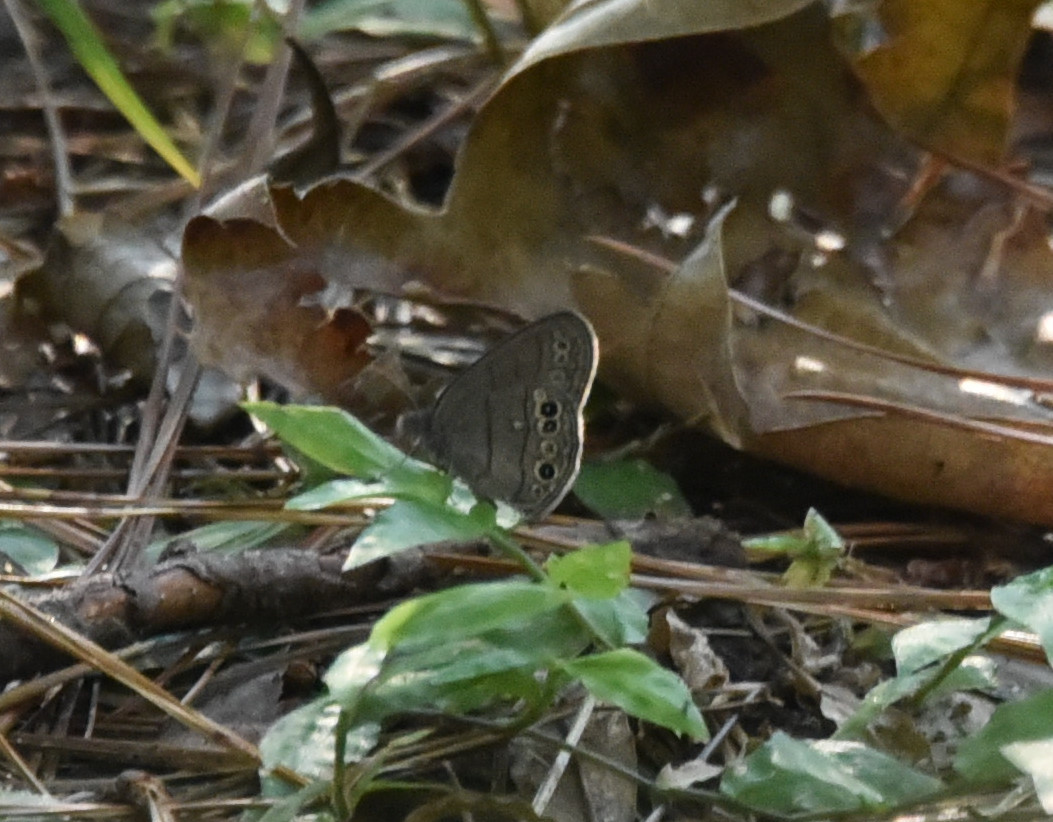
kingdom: Animalia
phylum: Arthropoda
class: Insecta
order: Lepidoptera
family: Nymphalidae
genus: Hermeuptychia
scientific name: Hermeuptychia hermes
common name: Hermes satyr
